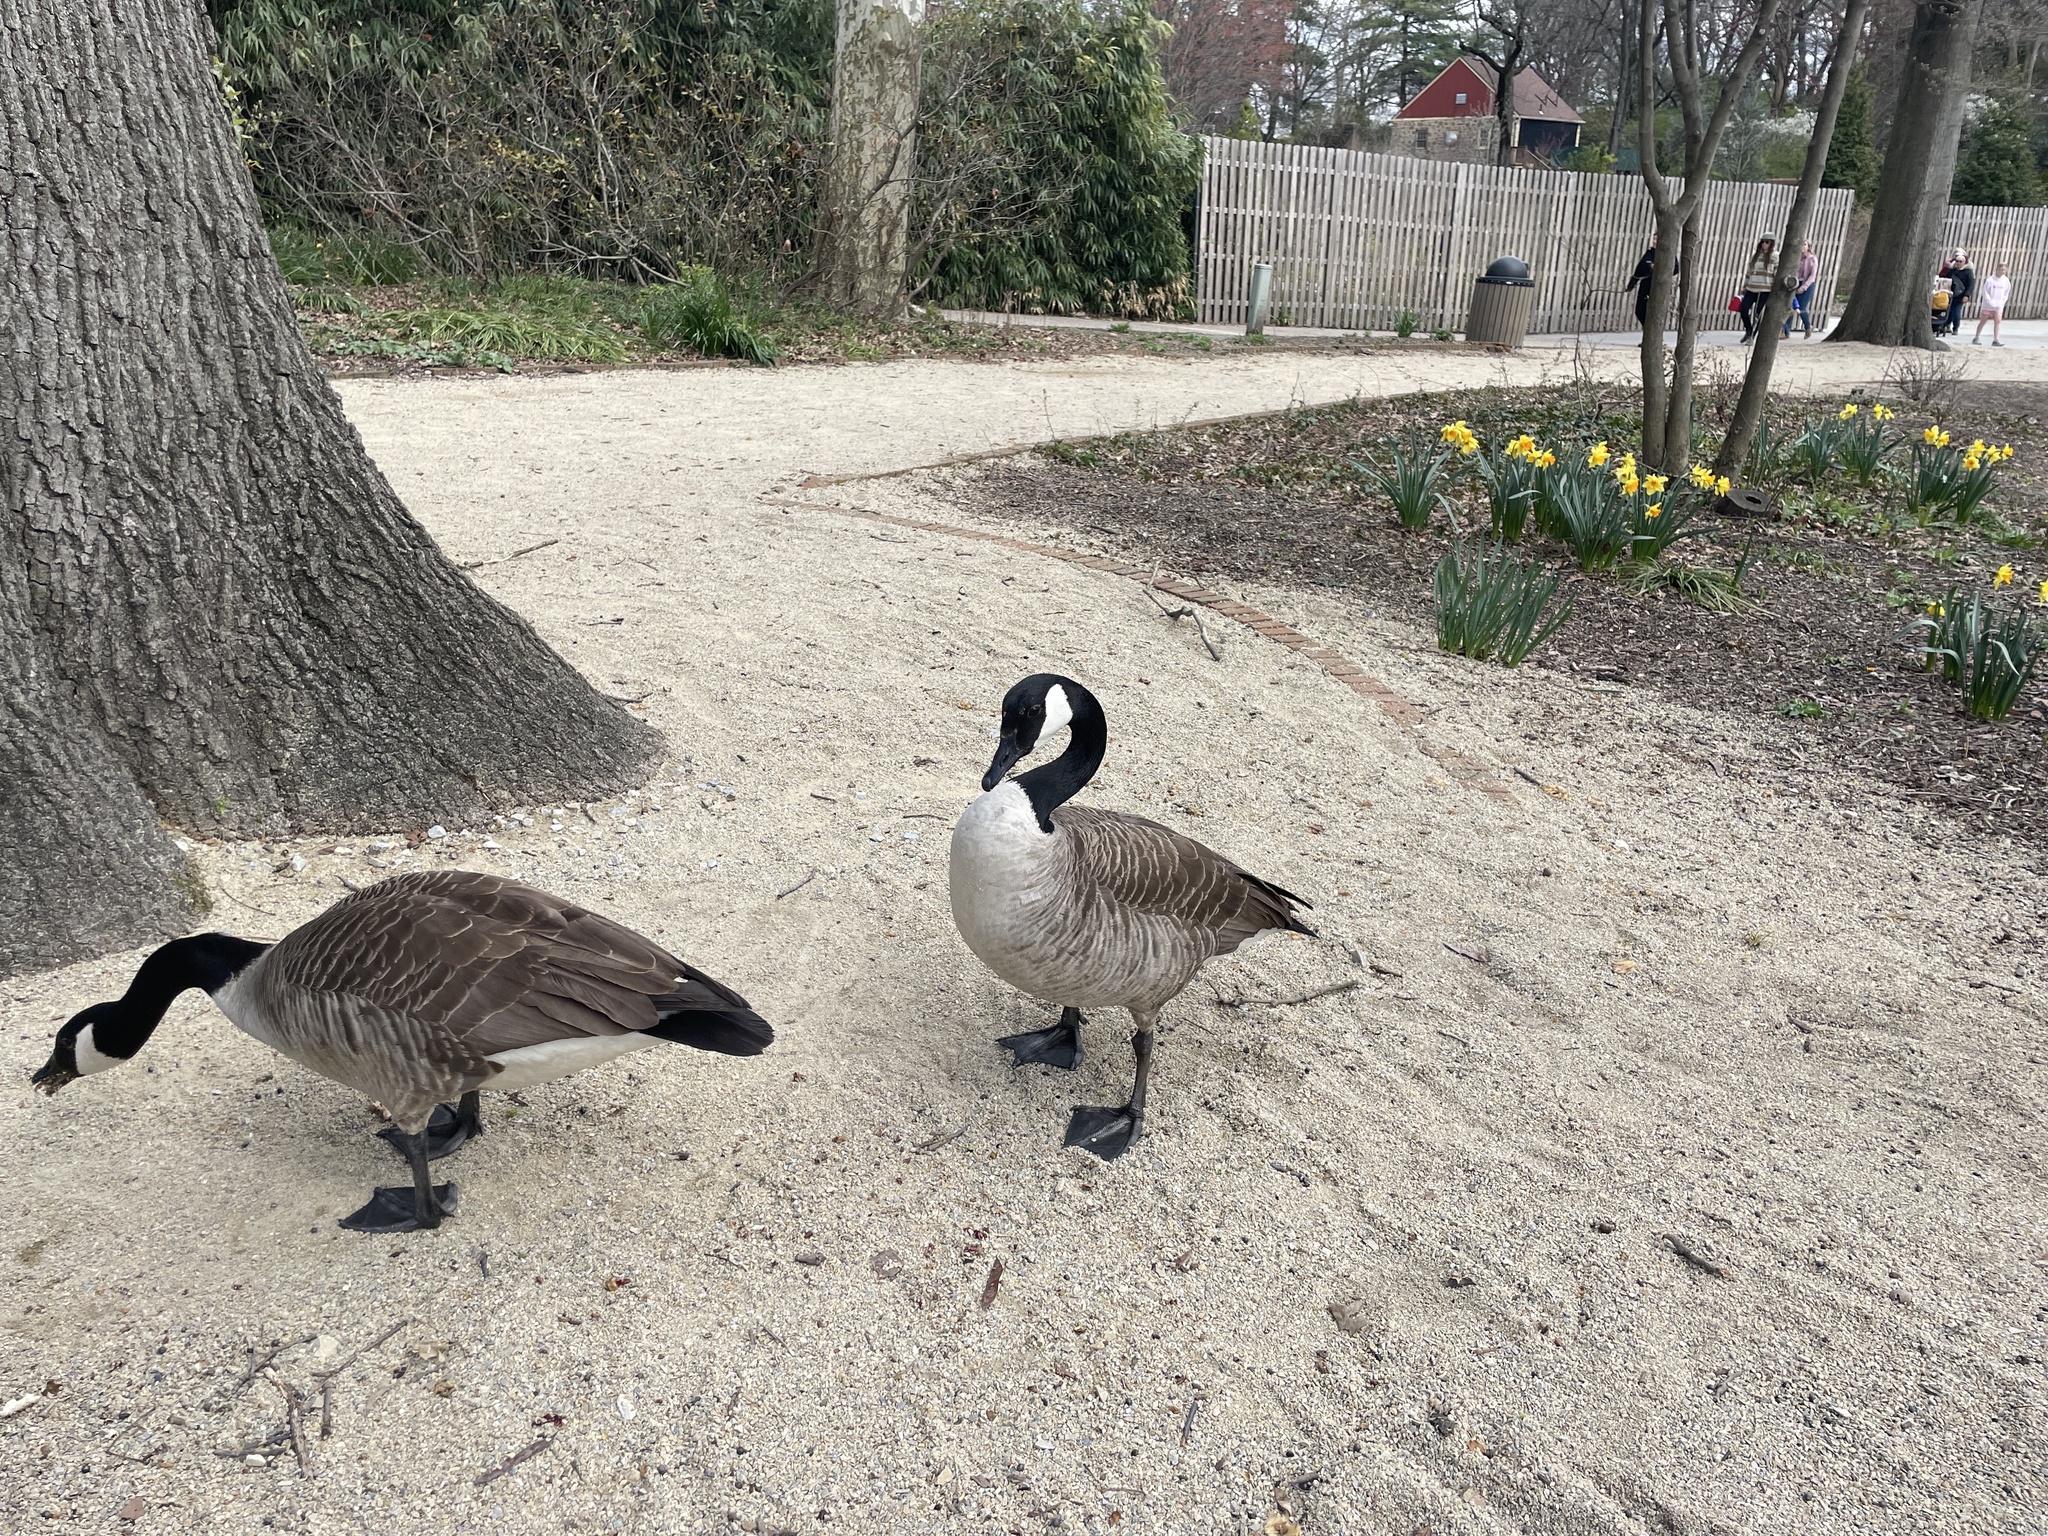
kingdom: Animalia
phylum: Chordata
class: Aves
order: Anseriformes
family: Anatidae
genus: Branta
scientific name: Branta canadensis
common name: Canada goose
